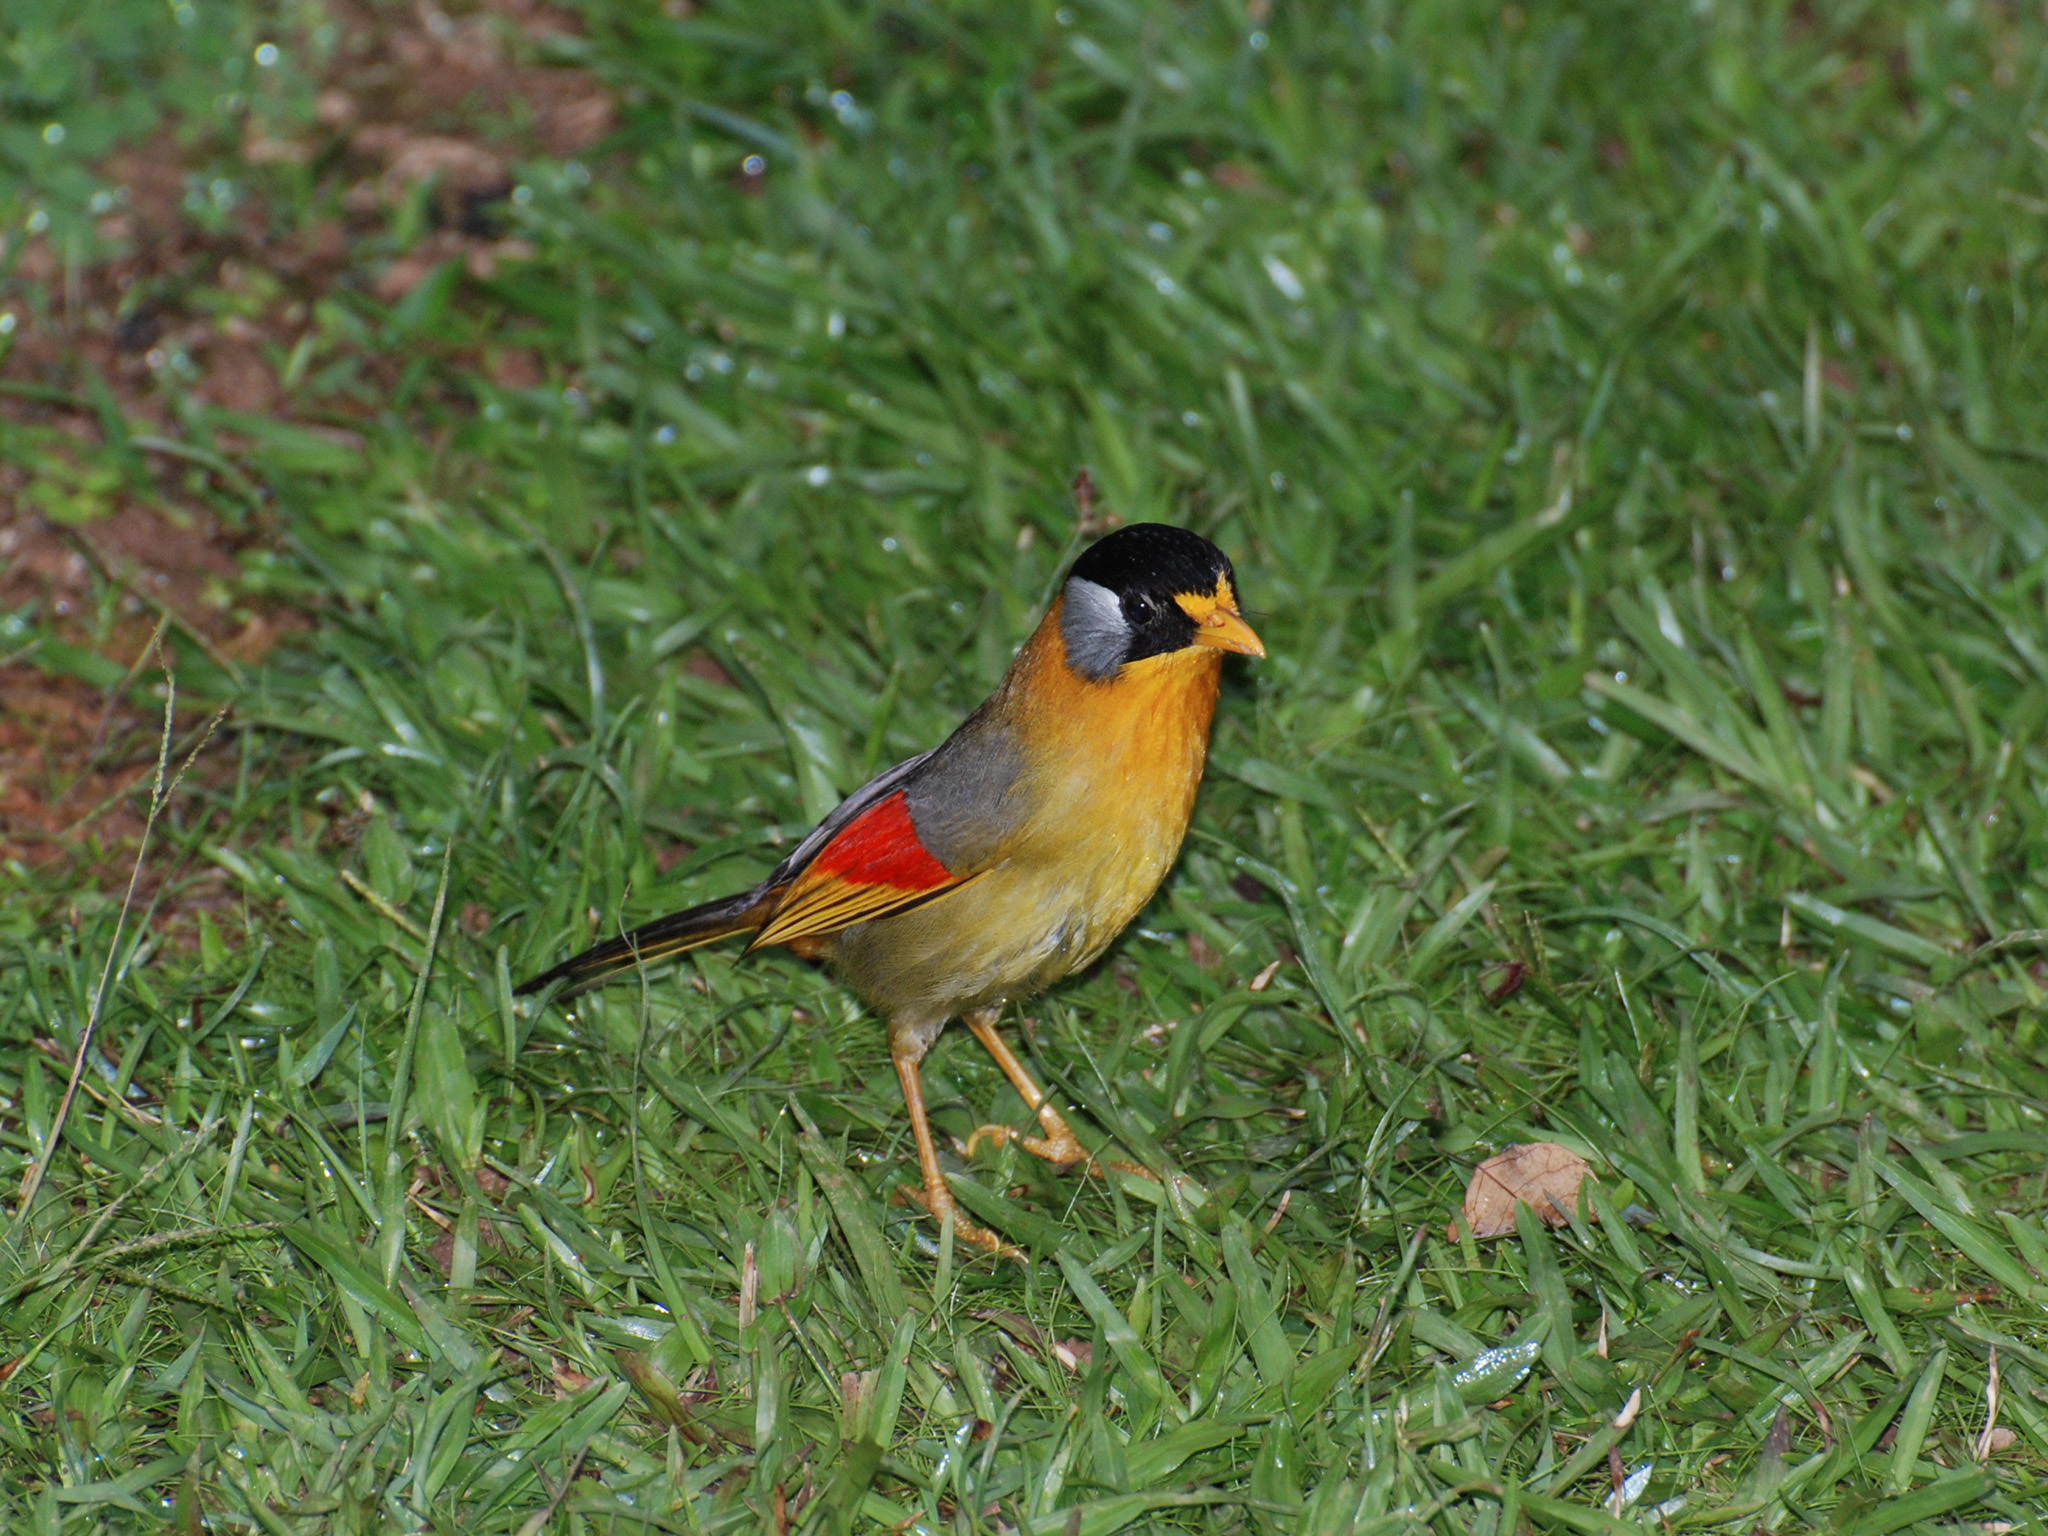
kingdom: Animalia
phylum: Chordata
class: Aves
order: Passeriformes
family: Leiothrichidae
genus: Leiothrix
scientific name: Leiothrix argentauris
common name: Silver-eared mesia
